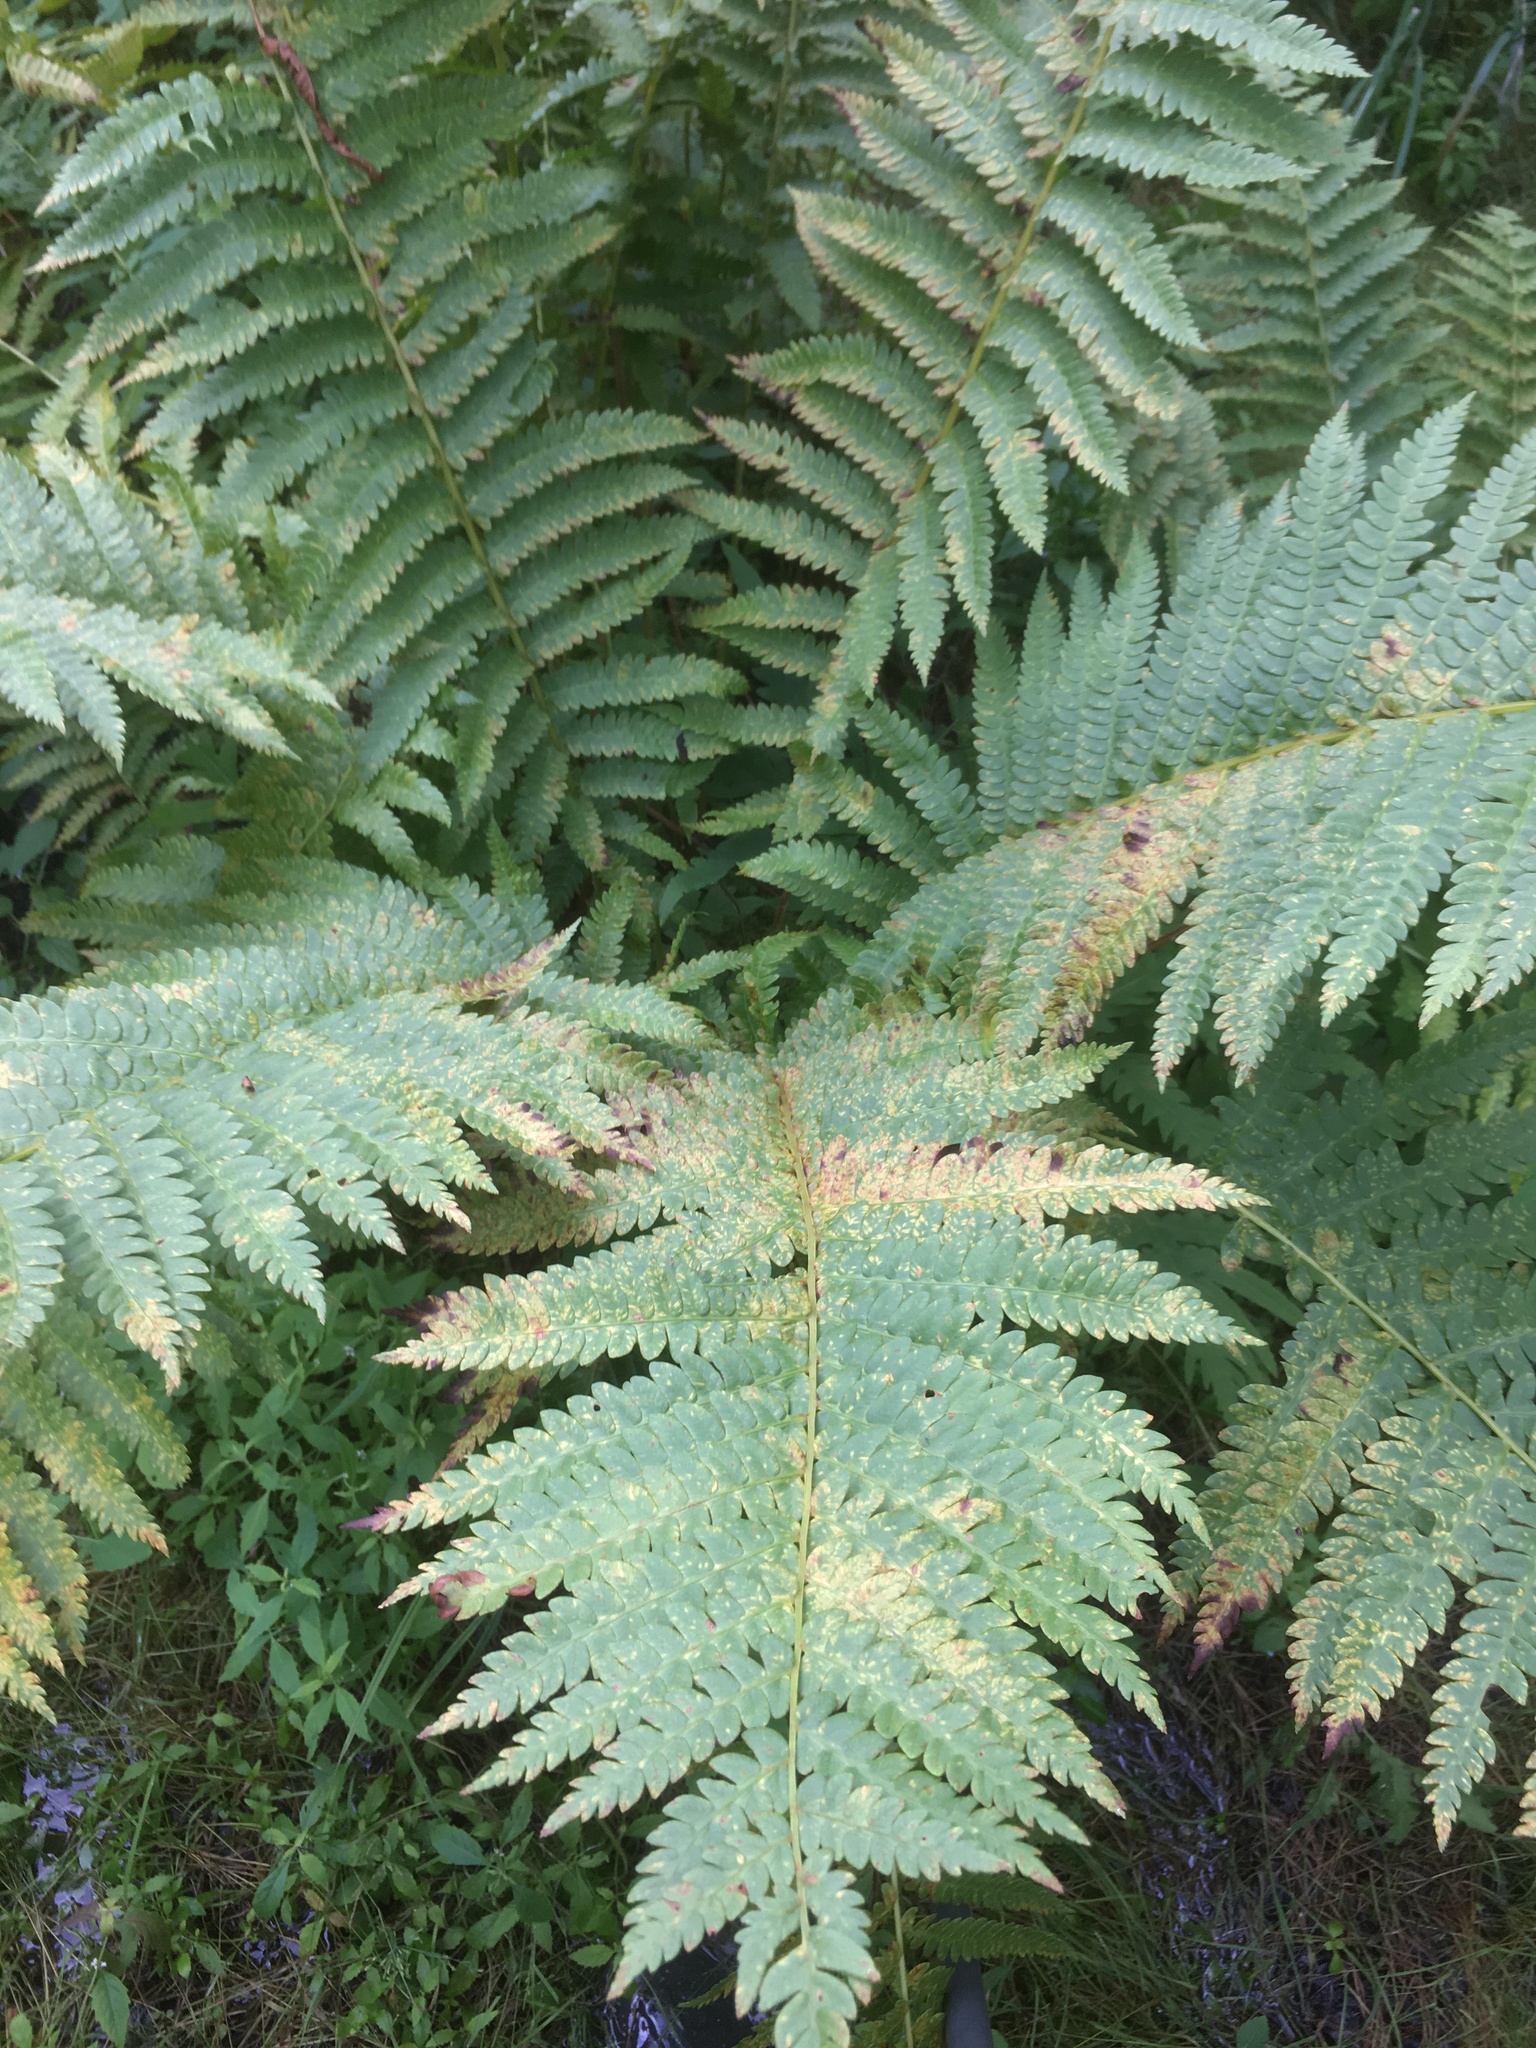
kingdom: Plantae
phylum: Tracheophyta
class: Polypodiopsida
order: Osmundales
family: Osmundaceae
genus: Osmundastrum
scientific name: Osmundastrum cinnamomeum
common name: Cinnamon fern
